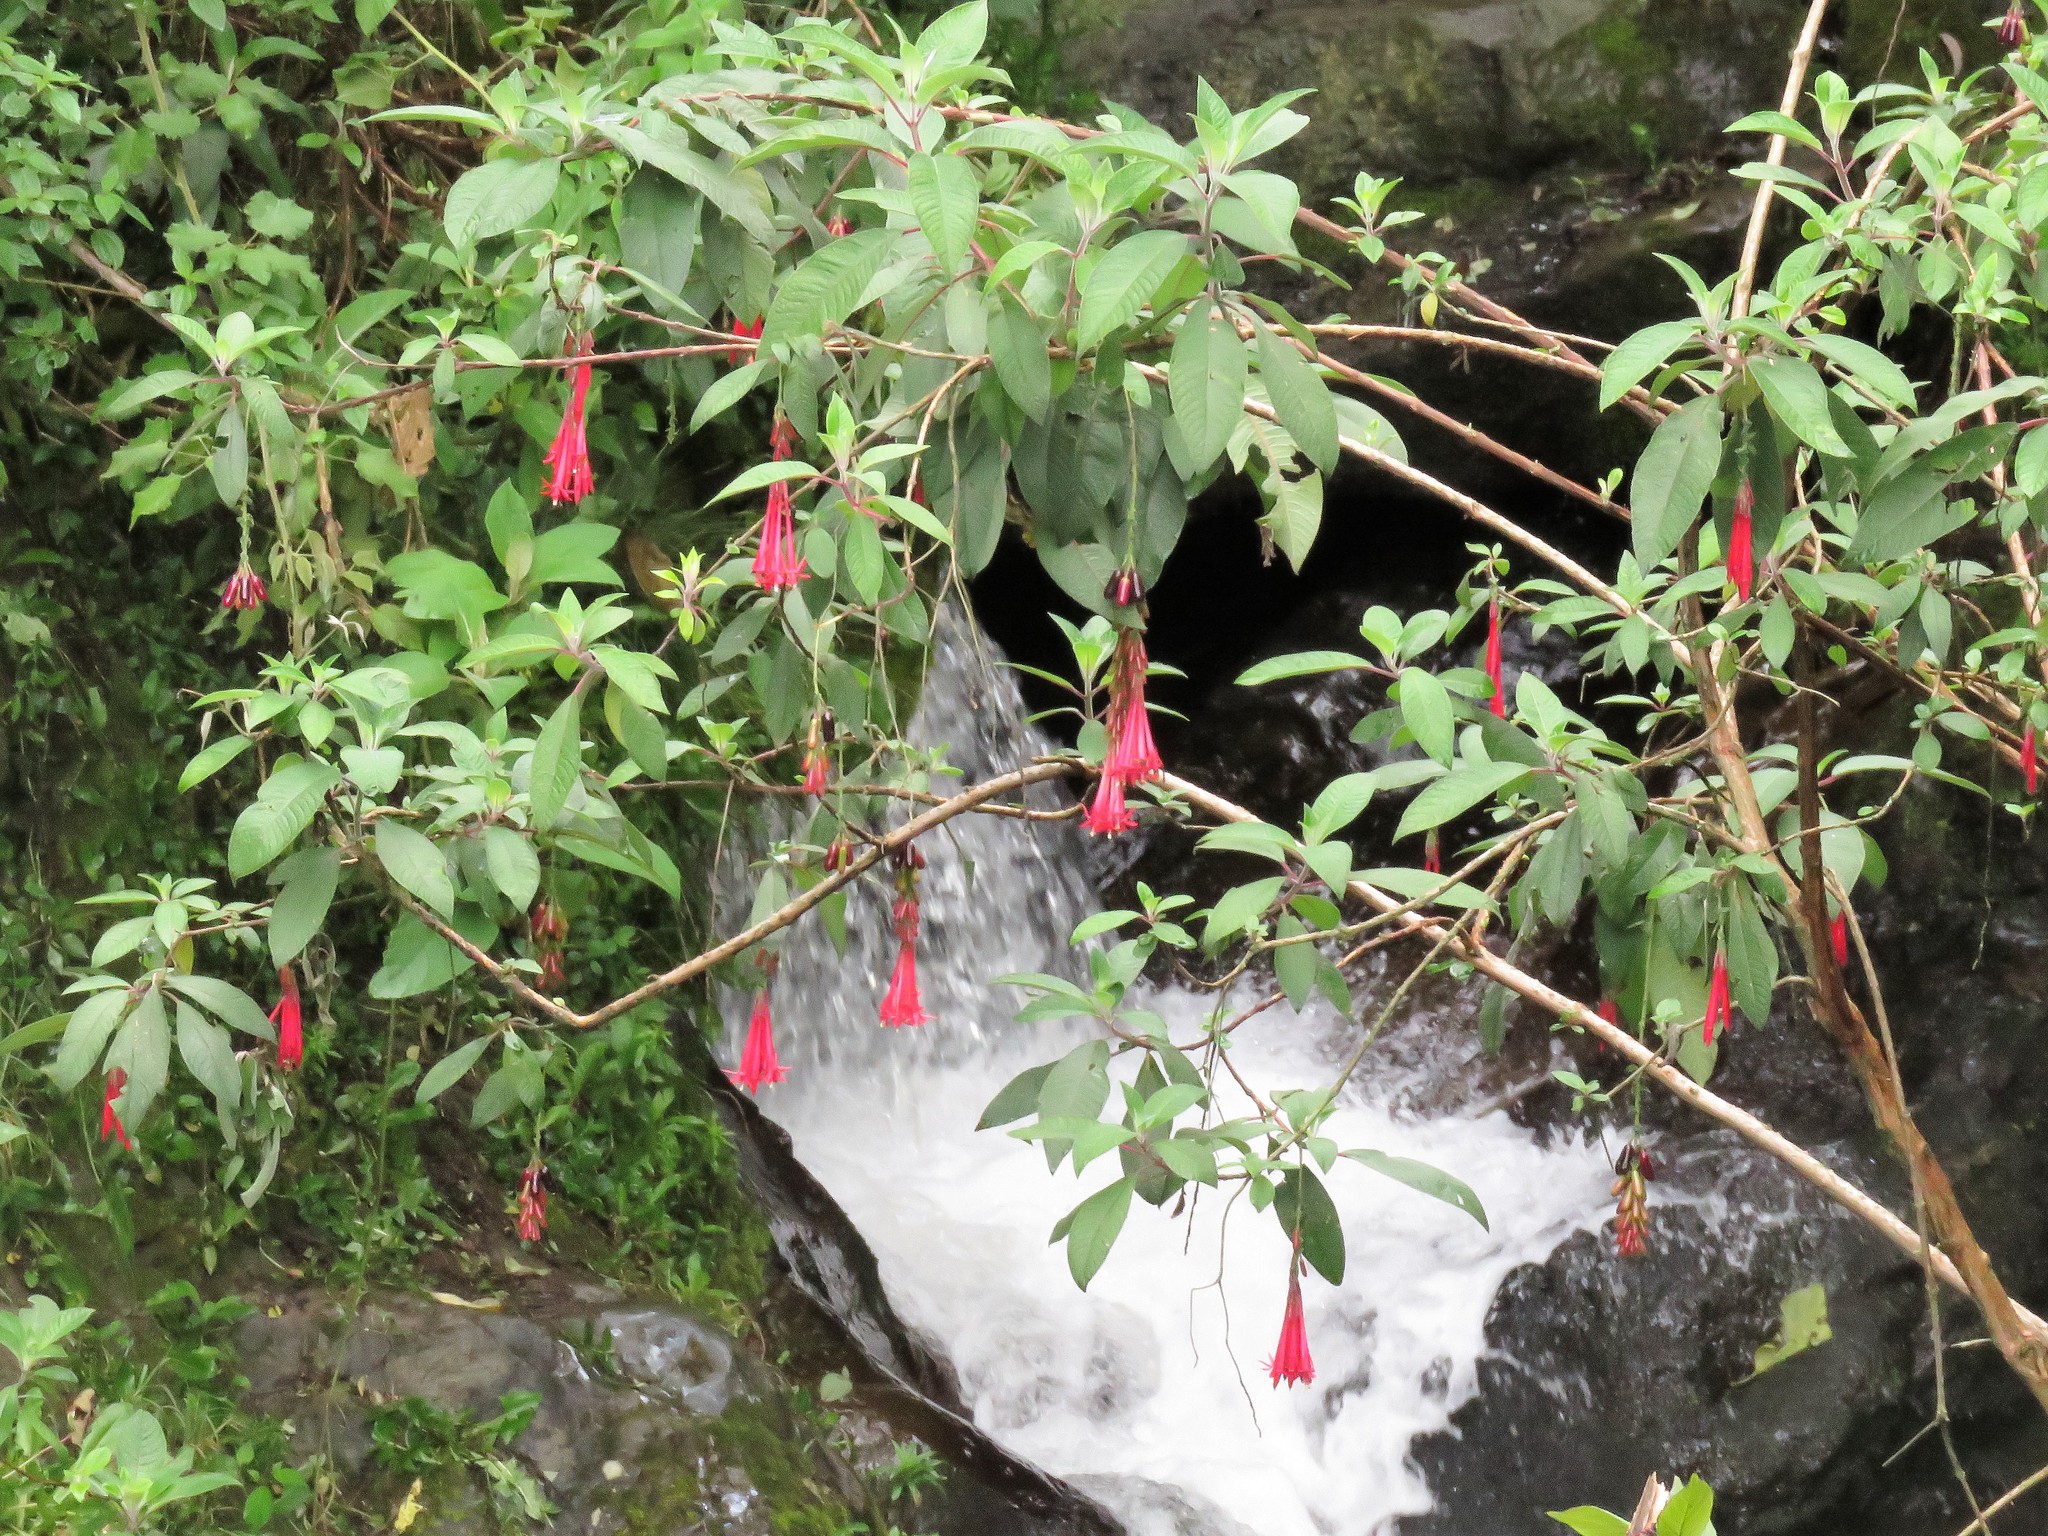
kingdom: Plantae
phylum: Tracheophyta
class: Magnoliopsida
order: Myrtales
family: Onagraceae
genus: Fuchsia
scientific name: Fuchsia boliviana
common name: Bolivian fuchsia
